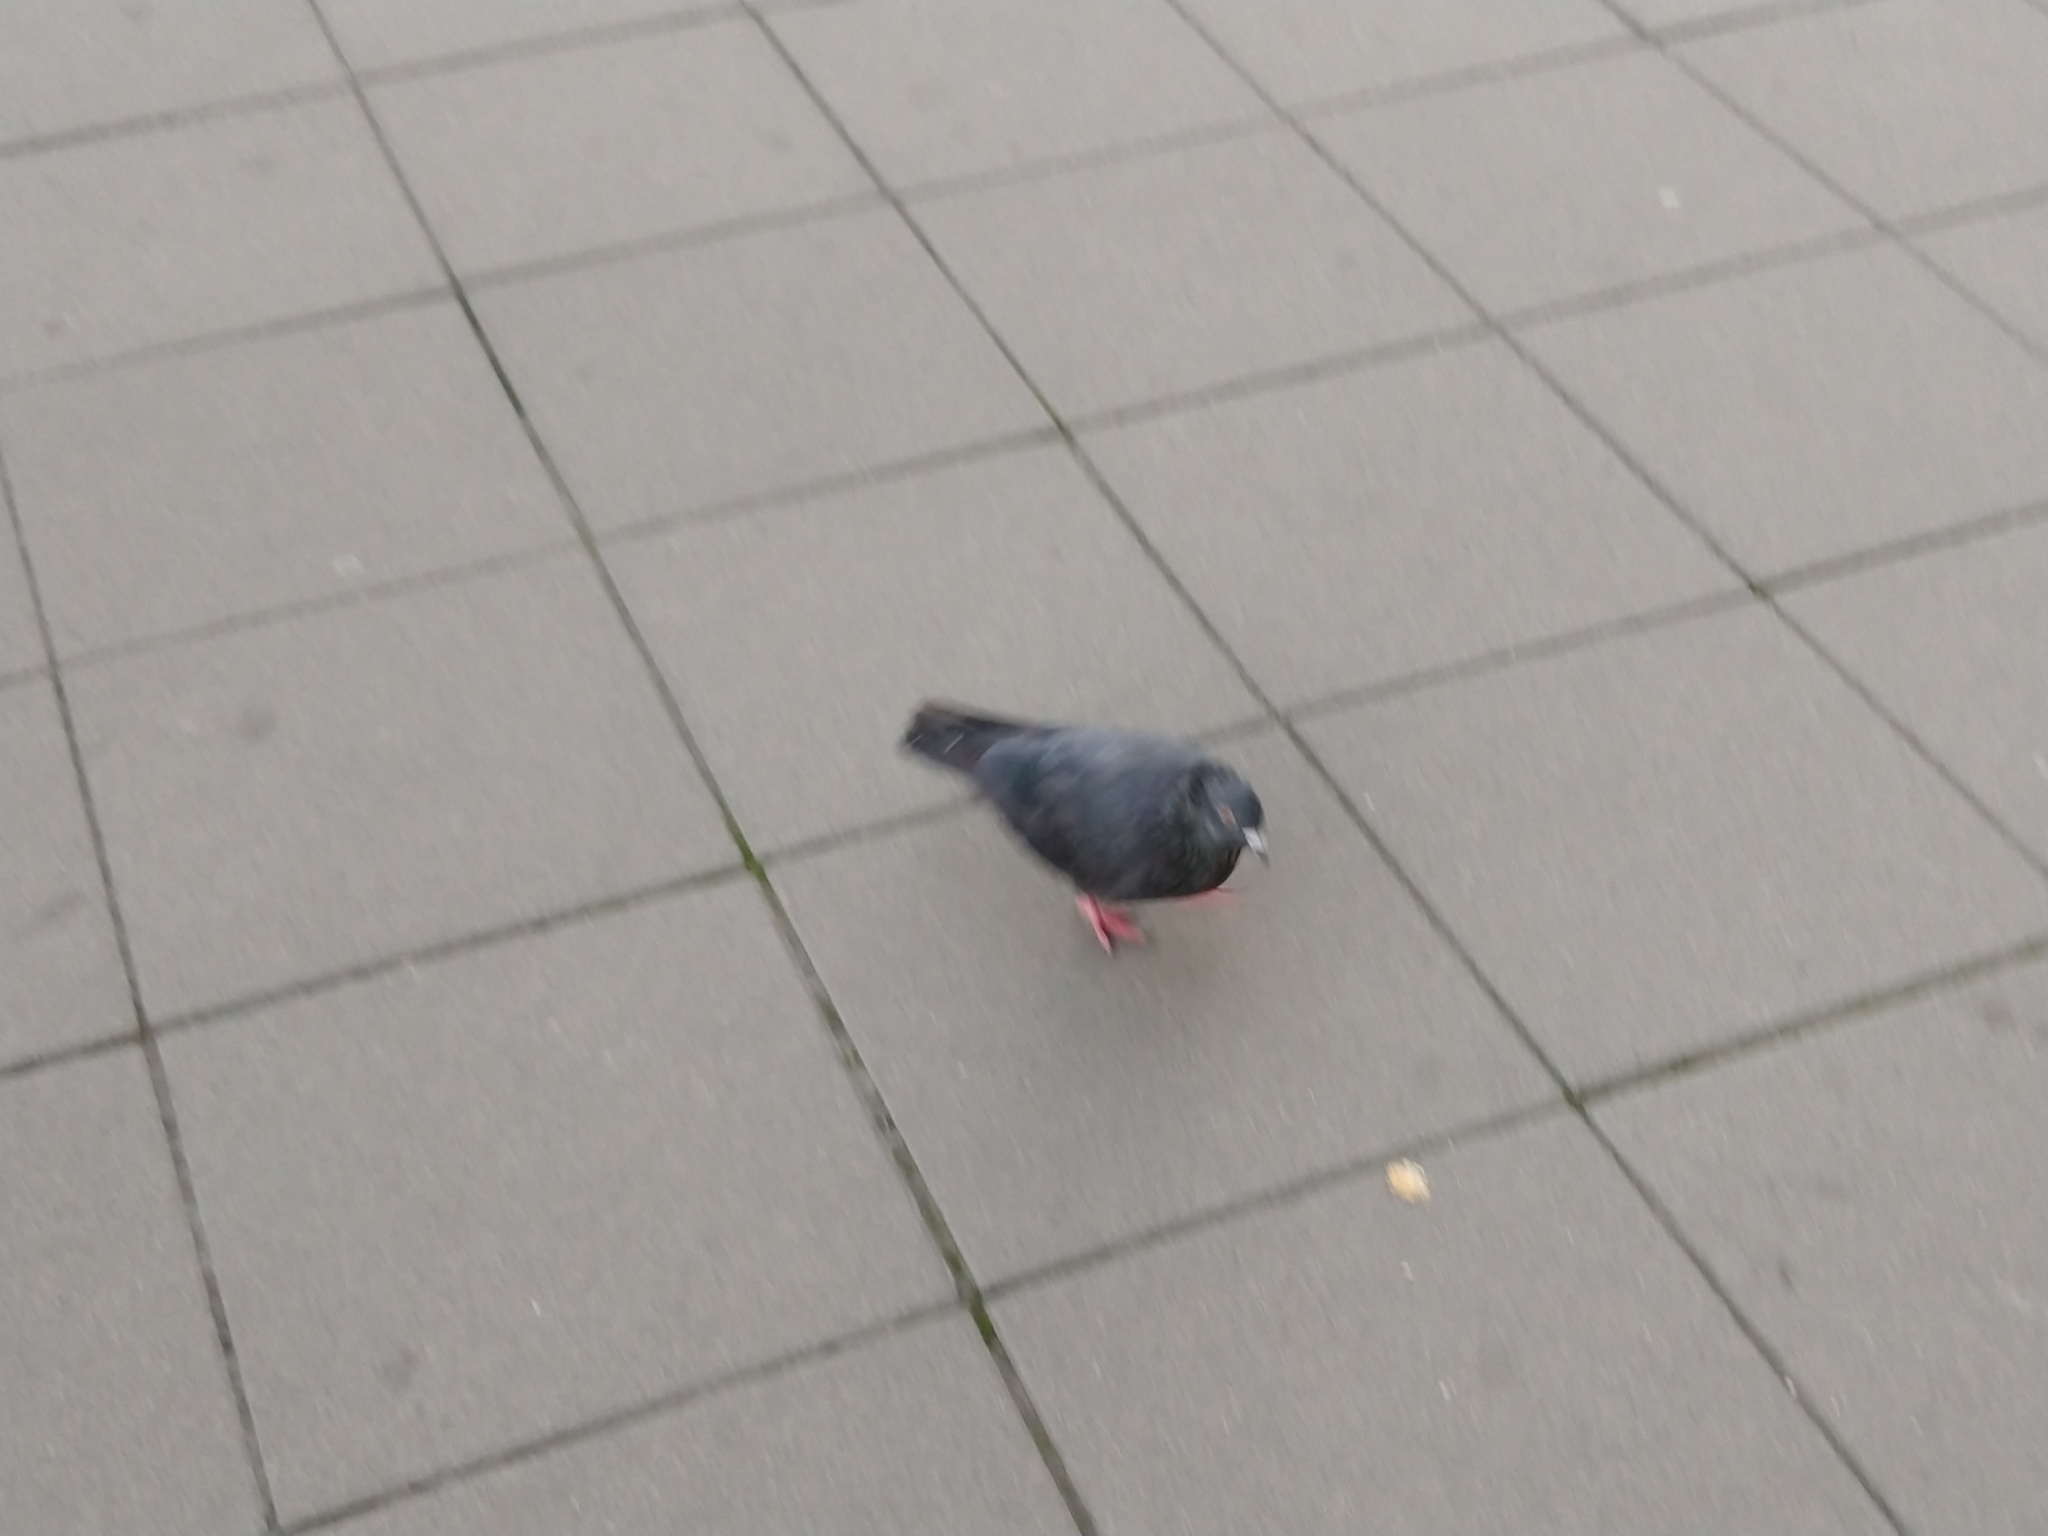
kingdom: Animalia
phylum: Chordata
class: Aves
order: Columbiformes
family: Columbidae
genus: Columba
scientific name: Columba livia
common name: Rock pigeon
